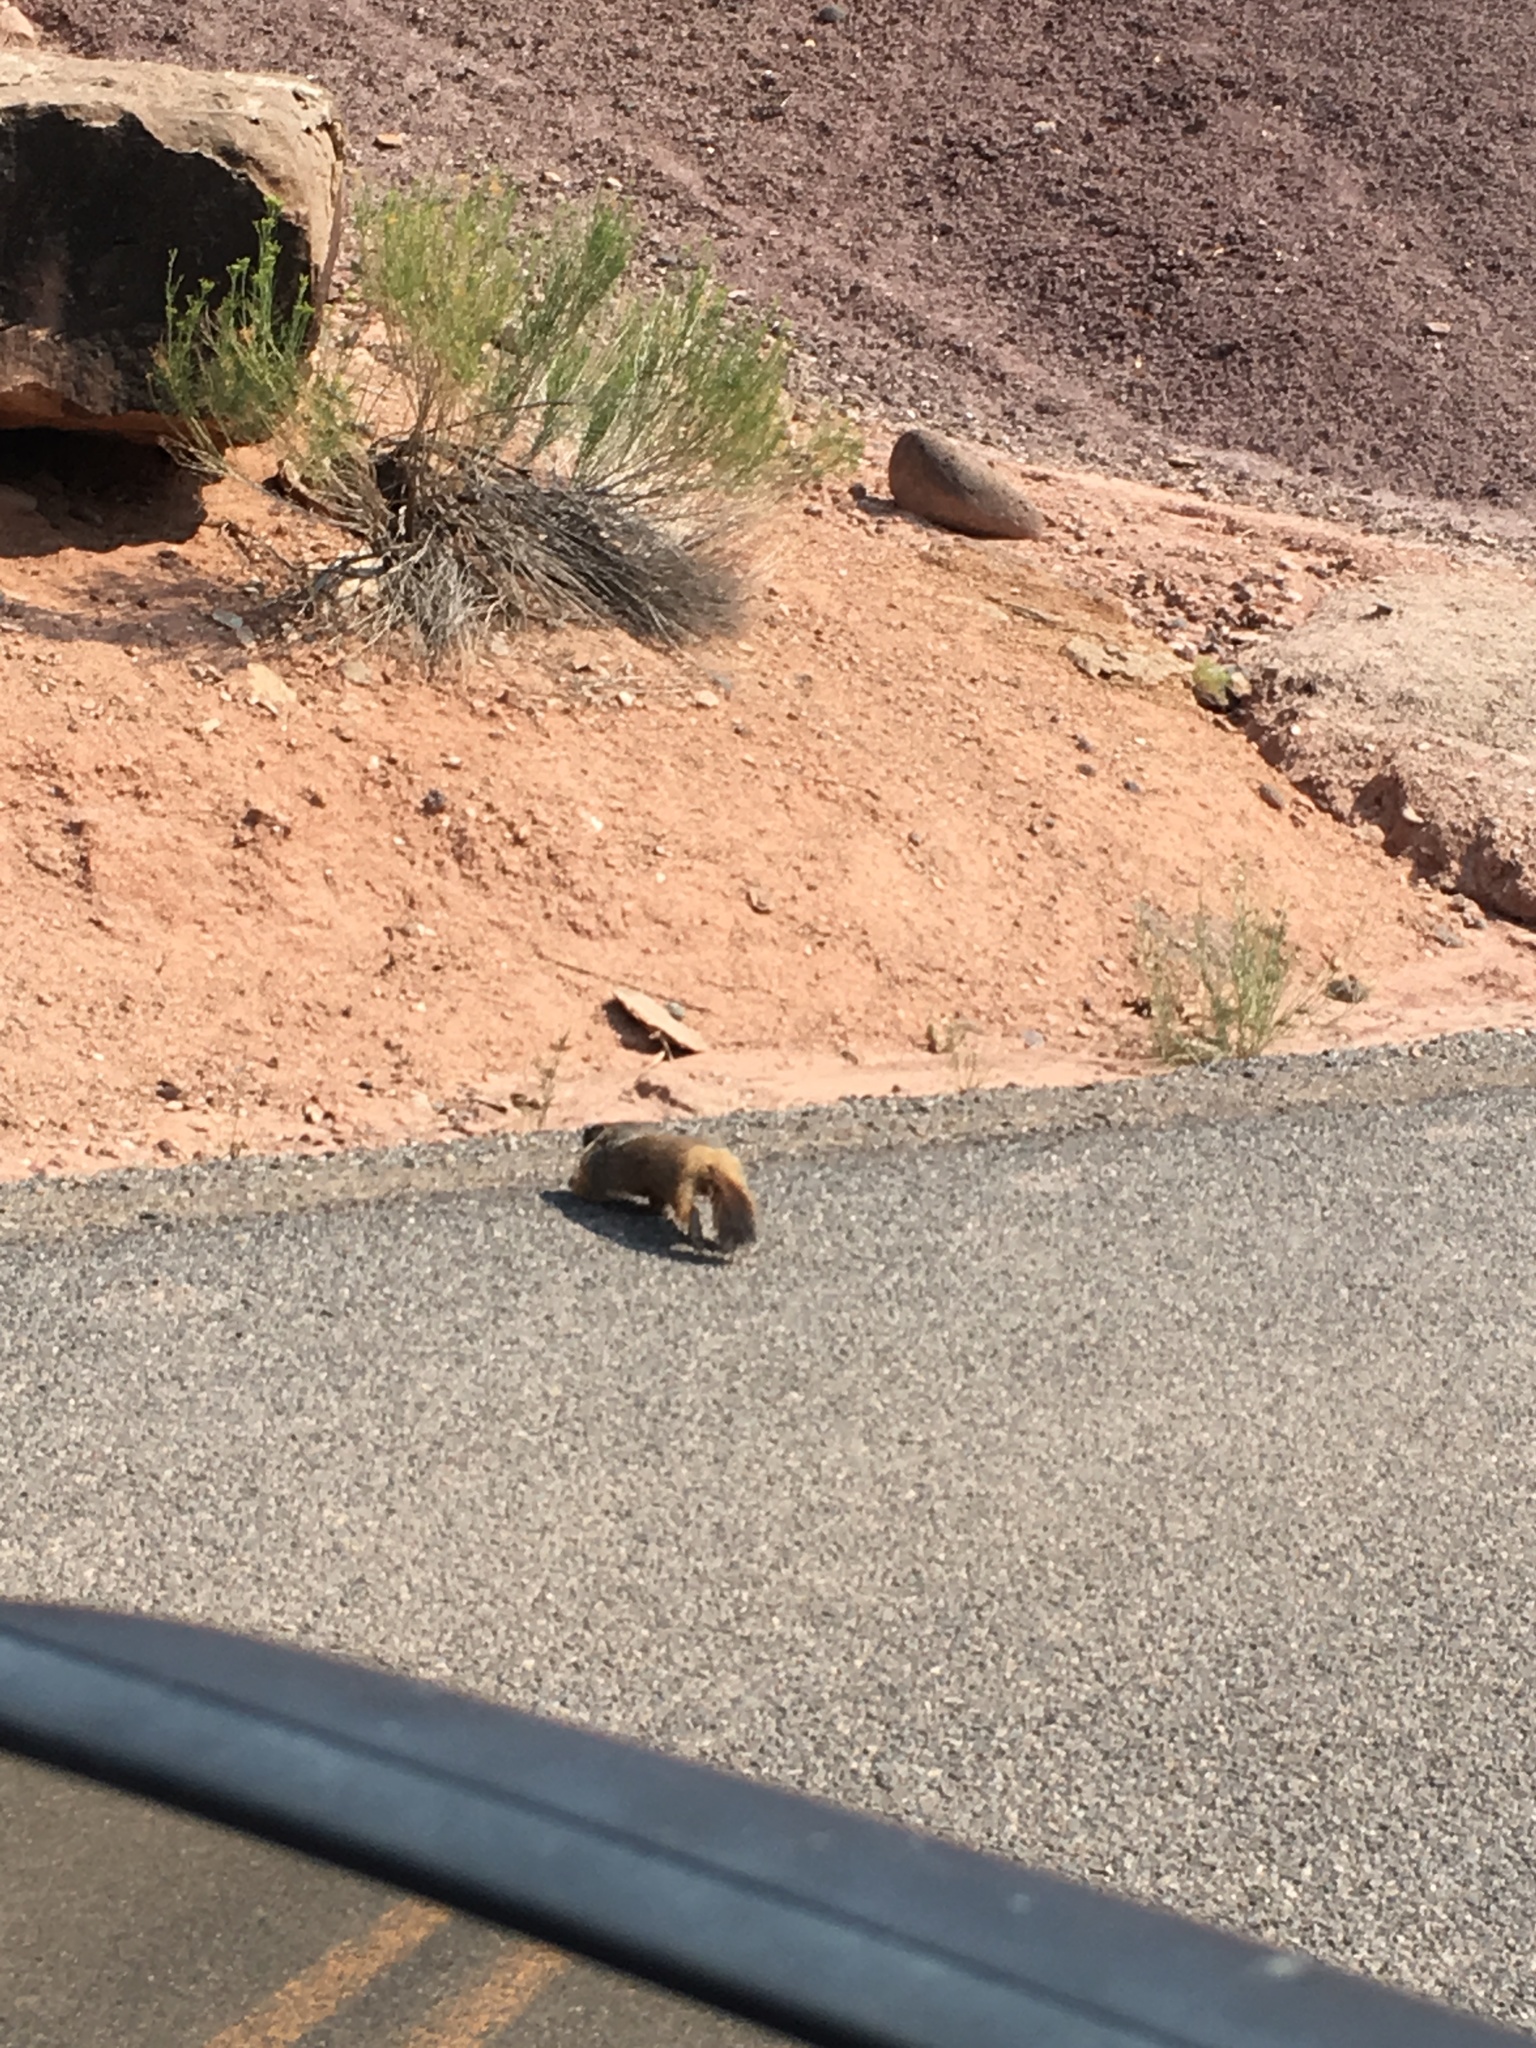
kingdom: Animalia
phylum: Chordata
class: Mammalia
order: Rodentia
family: Sciuridae
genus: Marmota
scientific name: Marmota flaviventris
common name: Yellow-bellied marmot
